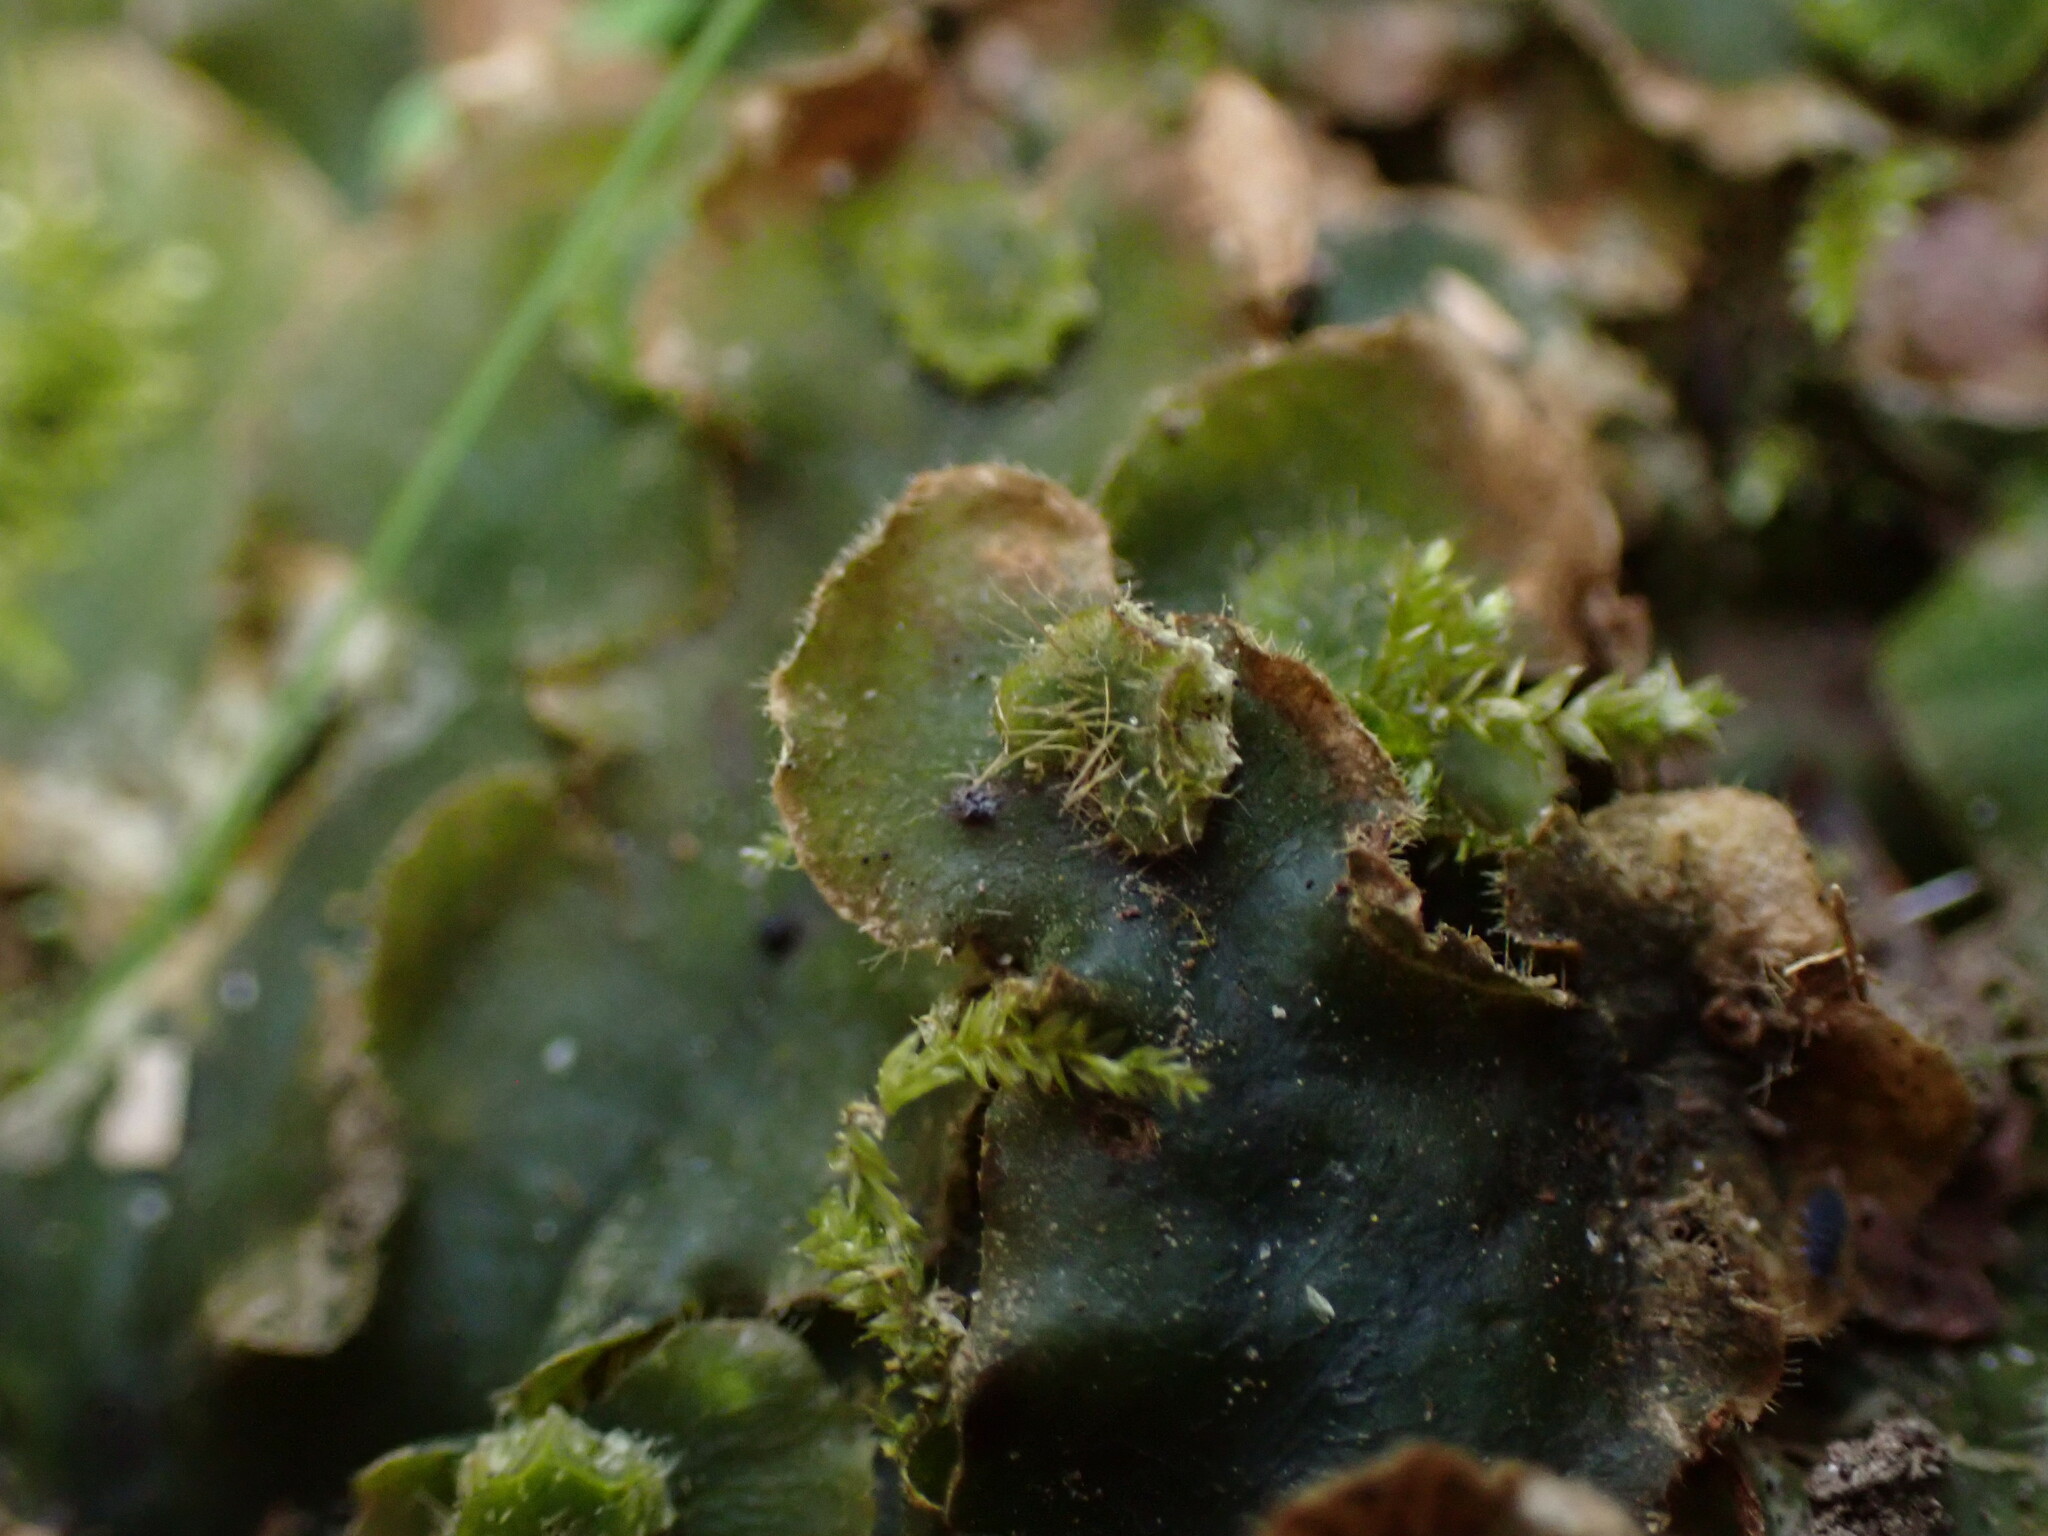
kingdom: Plantae
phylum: Marchantiophyta
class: Marchantiopsida
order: Marchantiales
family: Dumortieraceae
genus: Dumortiera
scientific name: Dumortiera hirsuta
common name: Dumortier's liverwort
